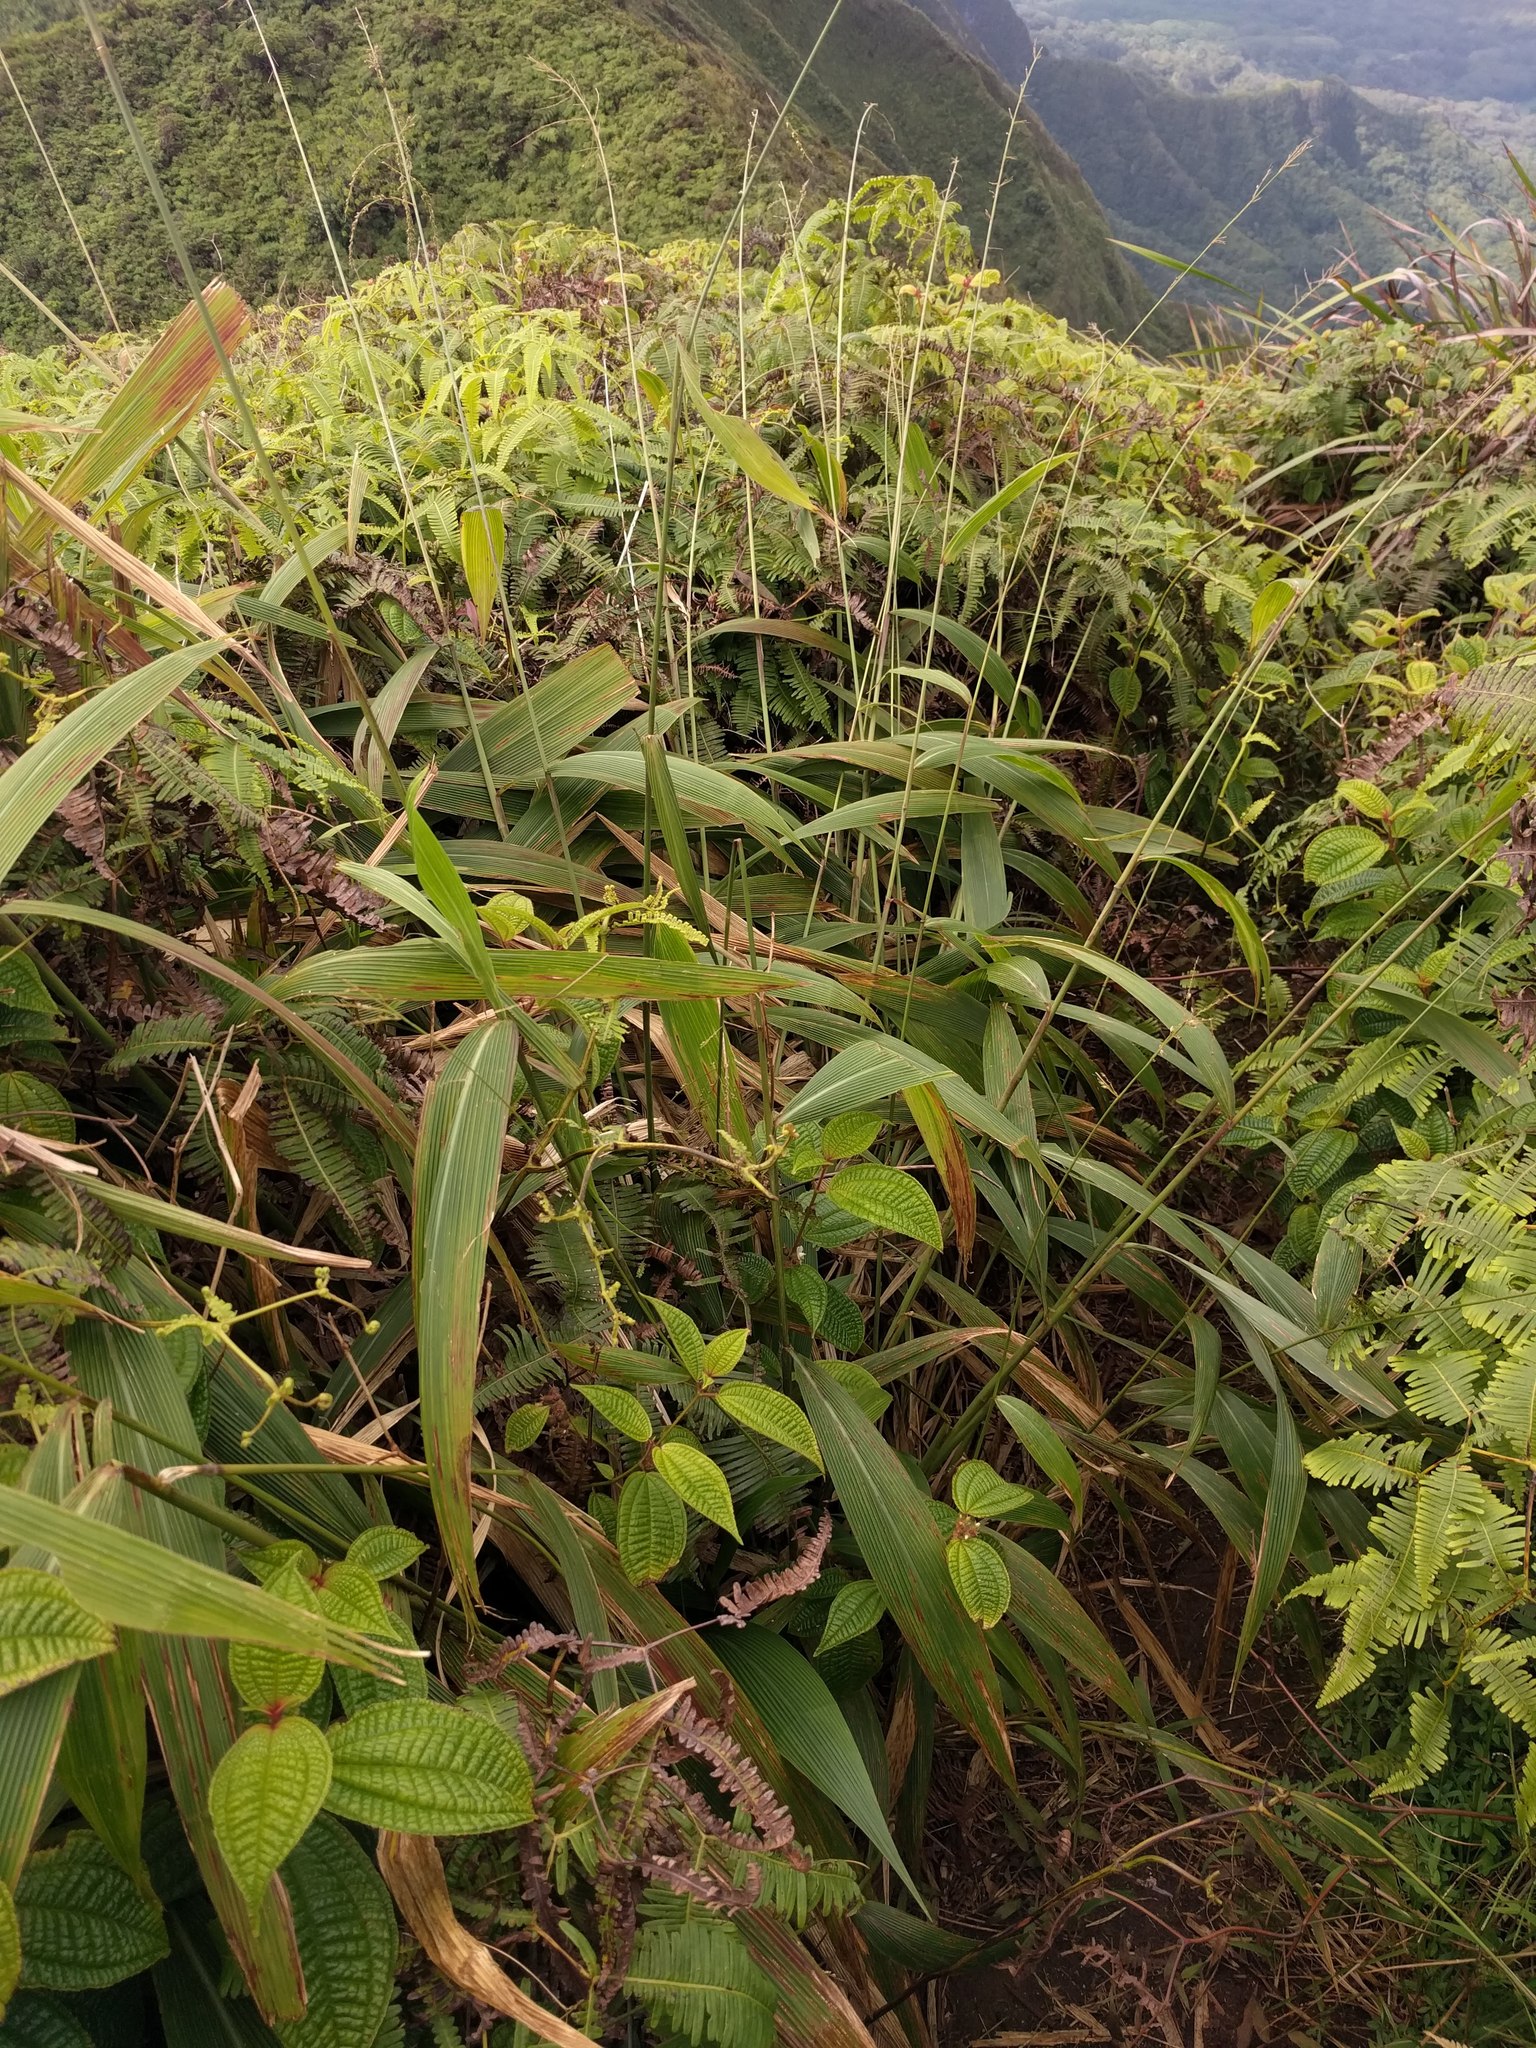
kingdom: Plantae
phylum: Tracheophyta
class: Liliopsida
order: Poales
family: Poaceae
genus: Setaria
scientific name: Setaria palmifolia
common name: Broadleaved bristlegrass
